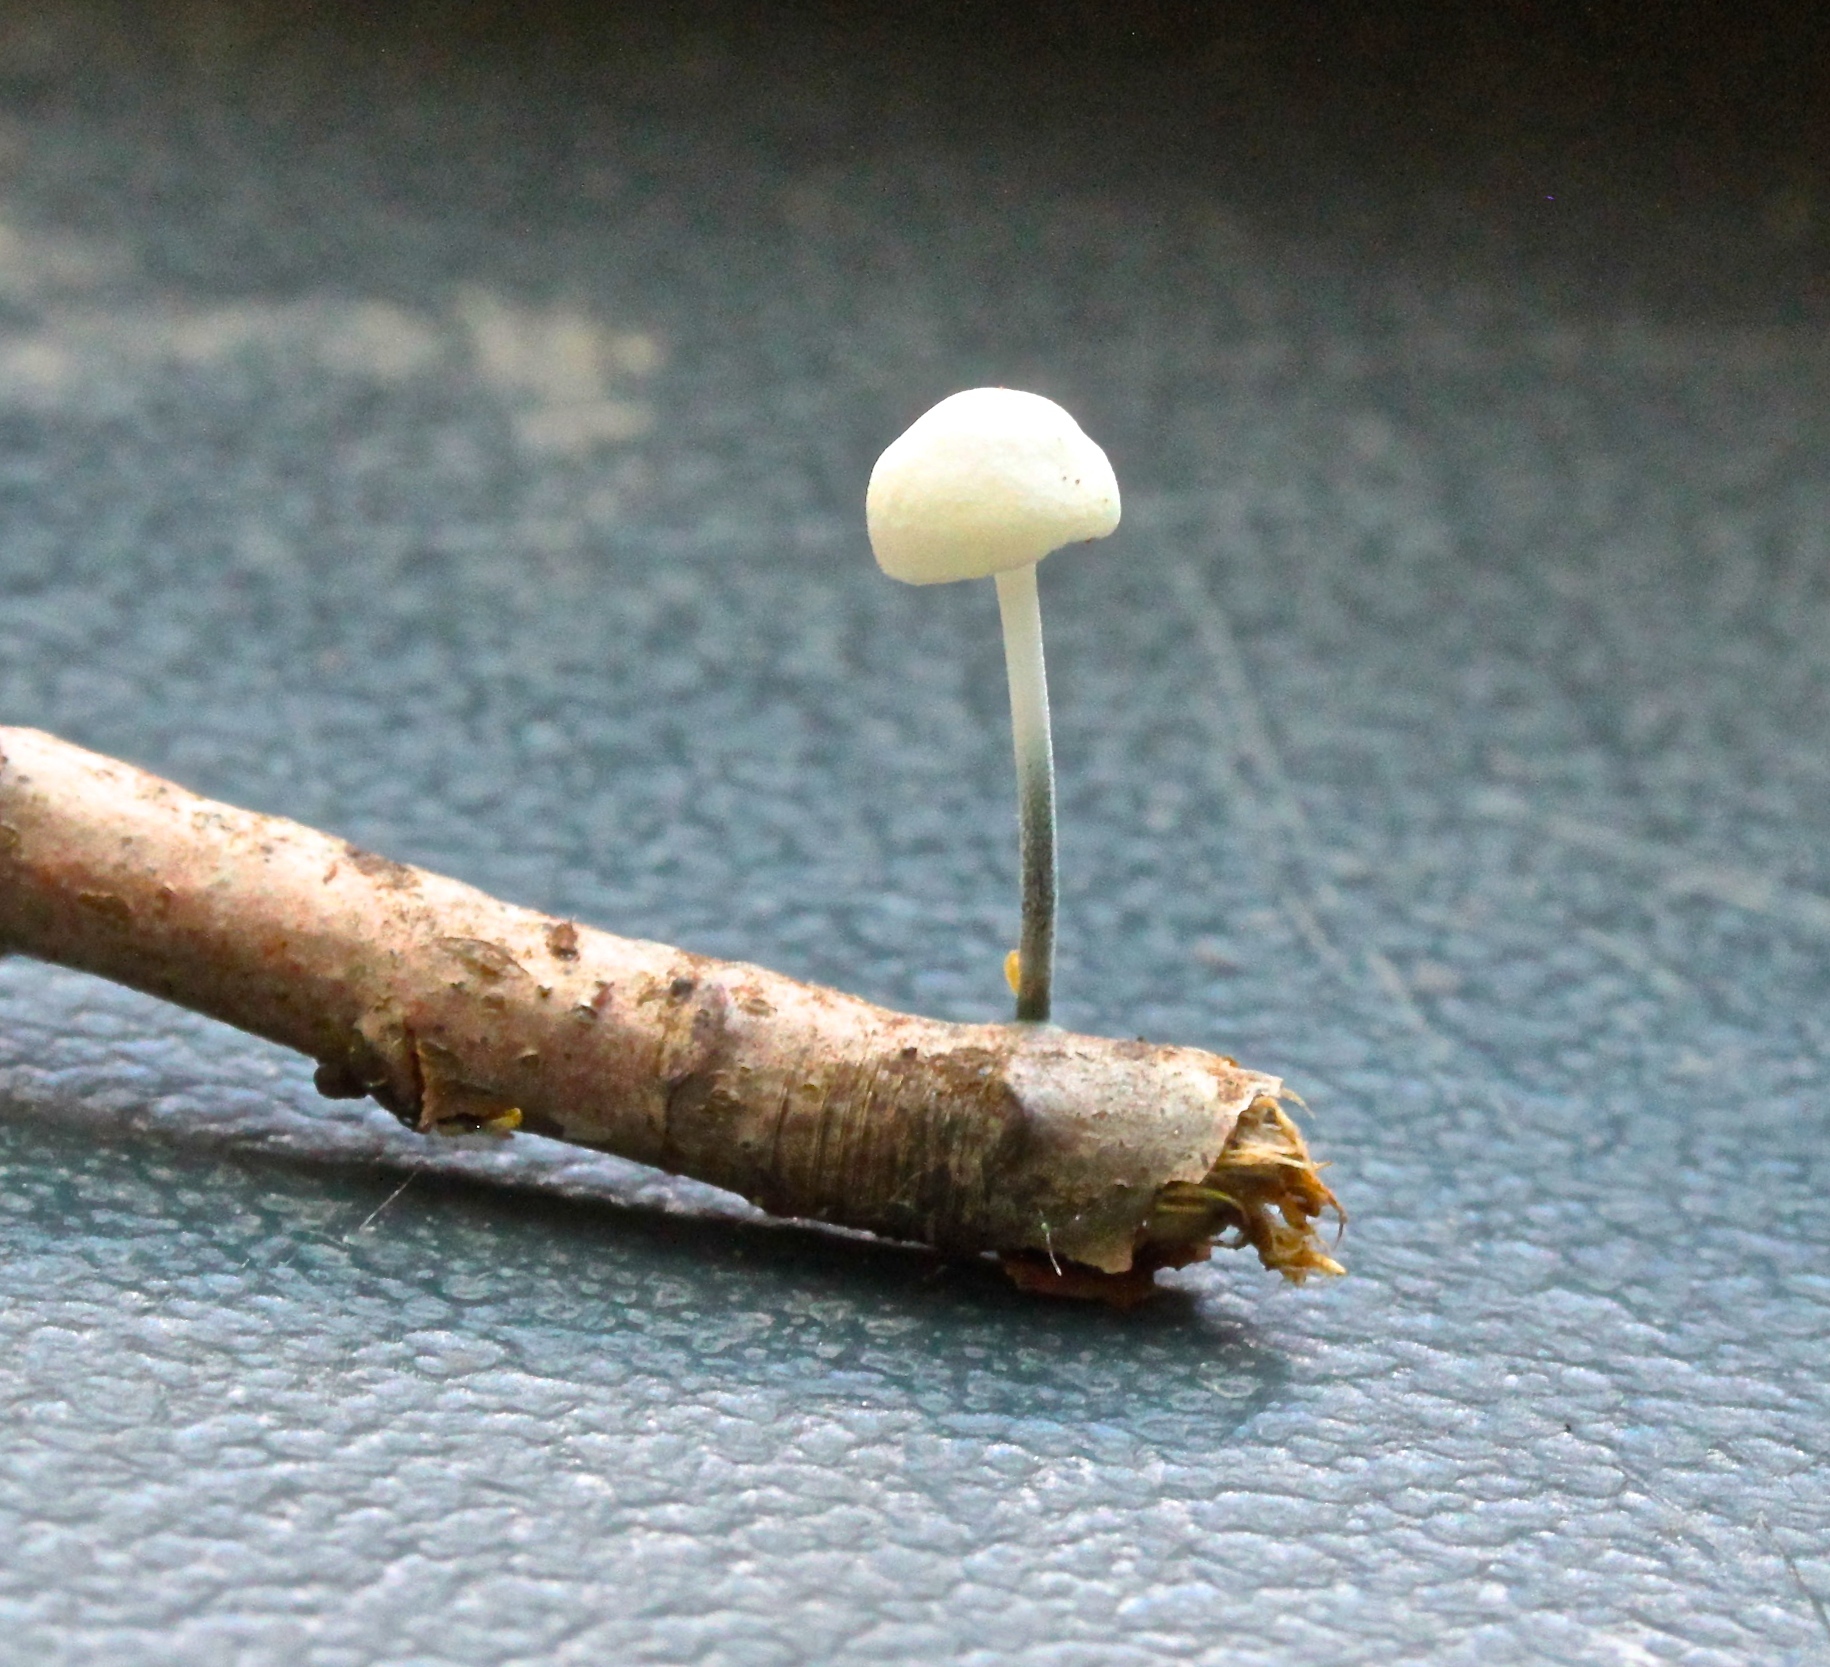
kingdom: Fungi
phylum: Basidiomycota
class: Agaricomycetes
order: Agaricales
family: Marasmiaceae
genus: Tetrapyrgos
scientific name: Tetrapyrgos nigripes
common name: Black-stalked marasmius
